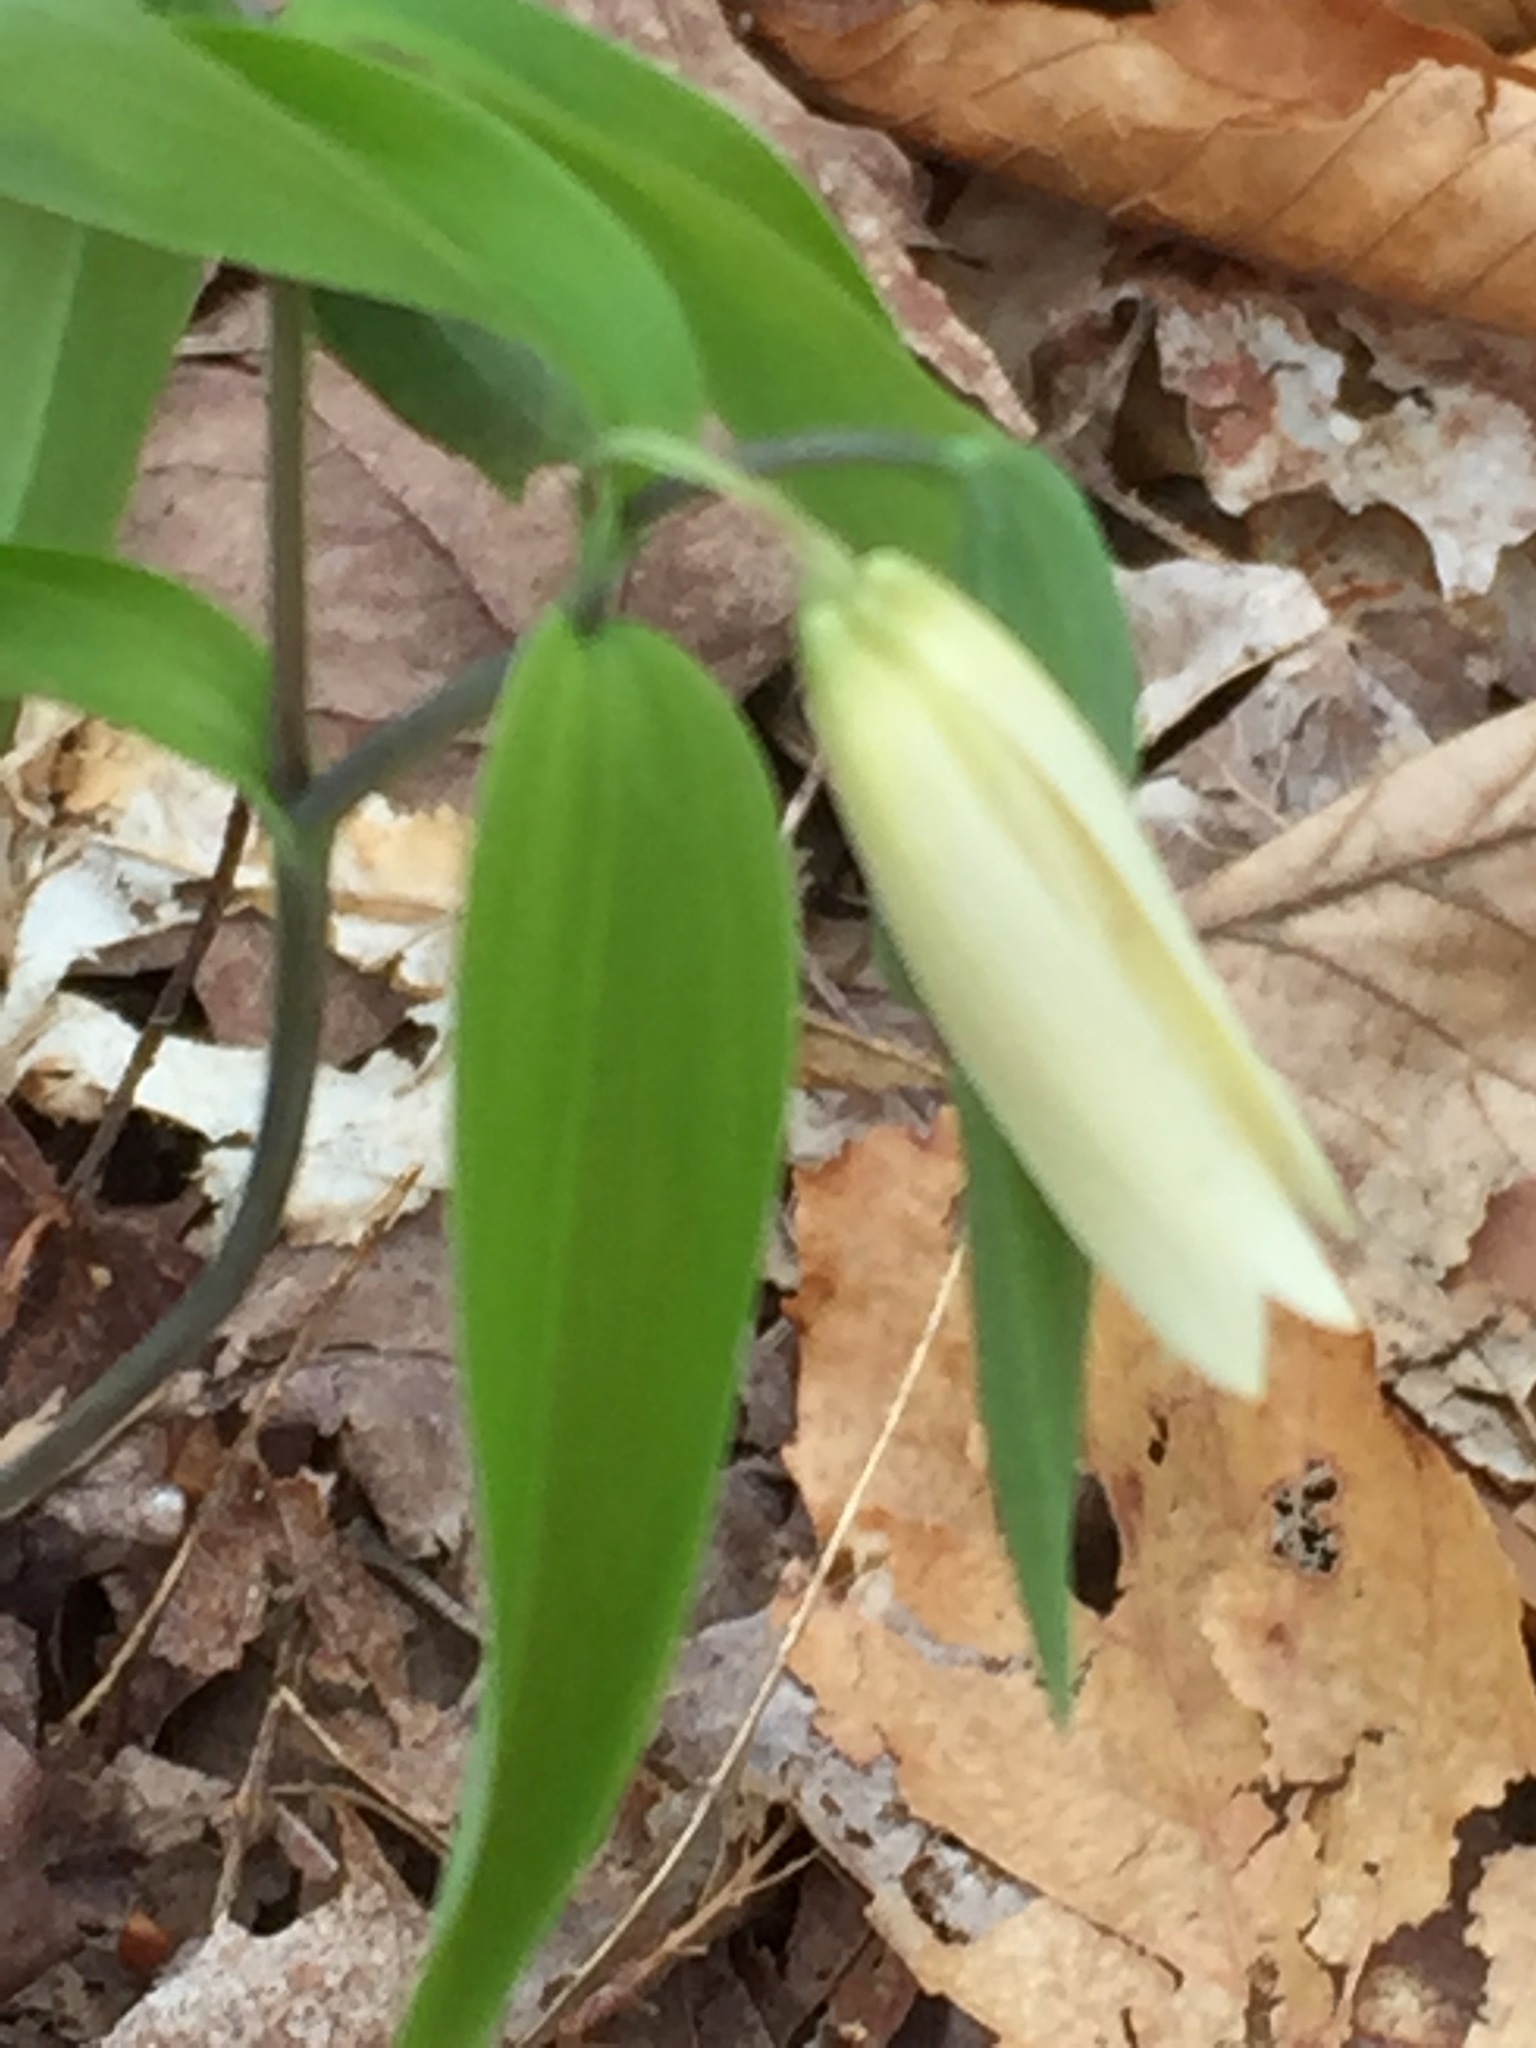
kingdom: Plantae
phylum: Tracheophyta
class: Liliopsida
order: Liliales
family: Colchicaceae
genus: Uvularia
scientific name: Uvularia sessilifolia
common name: Straw-lily
